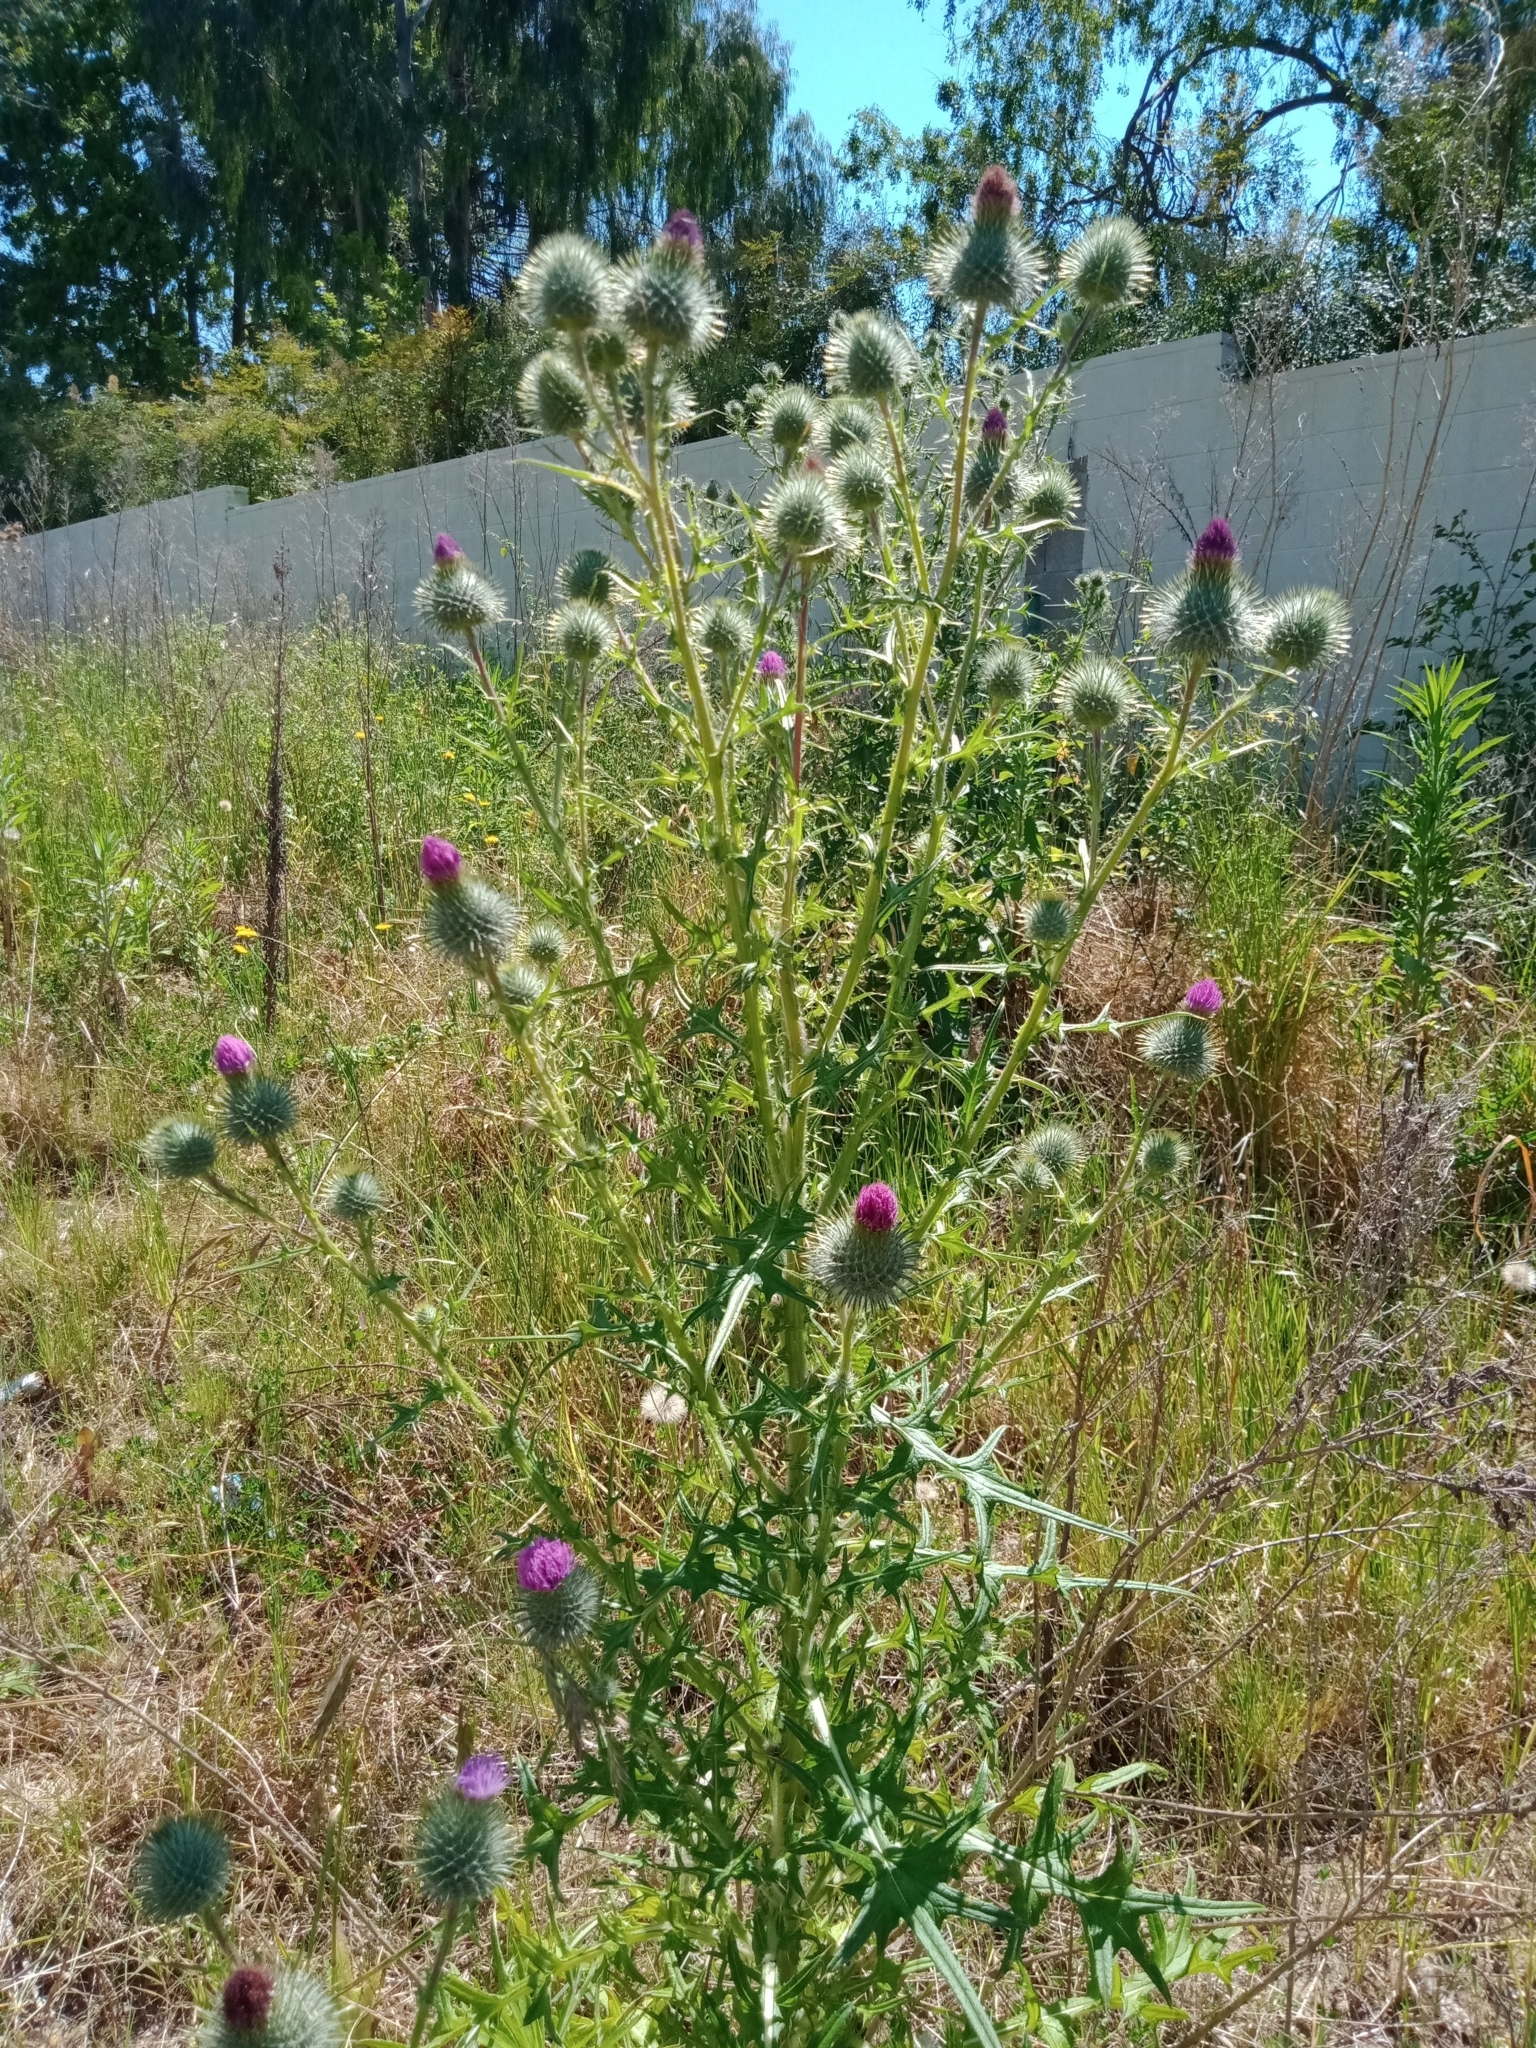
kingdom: Plantae
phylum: Tracheophyta
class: Magnoliopsida
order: Asterales
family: Asteraceae
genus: Cirsium
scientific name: Cirsium vulgare
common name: Bull thistle
